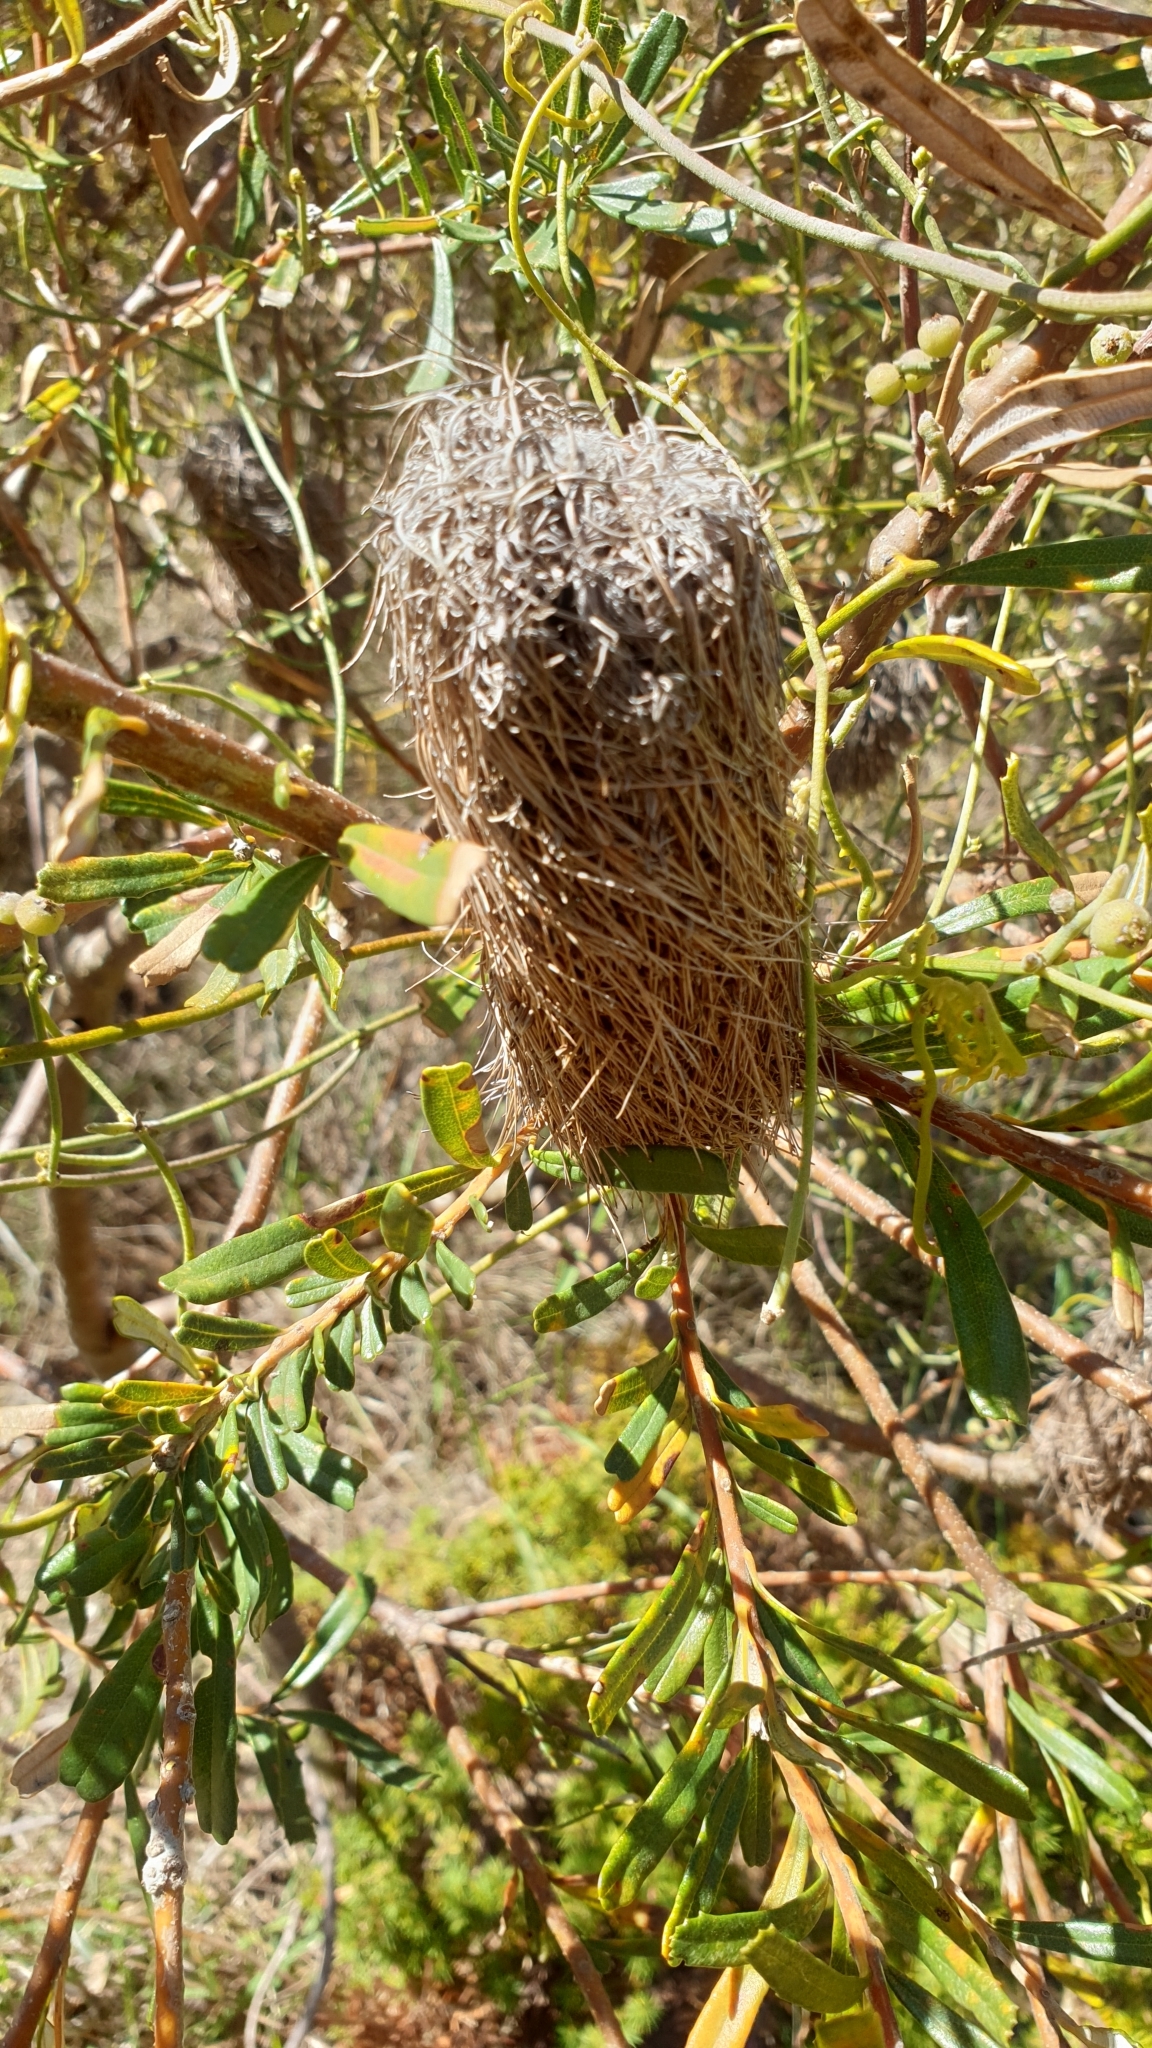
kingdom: Plantae
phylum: Tracheophyta
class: Magnoliopsida
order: Proteales
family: Proteaceae
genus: Banksia
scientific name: Banksia marginata
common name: Silver banksia
